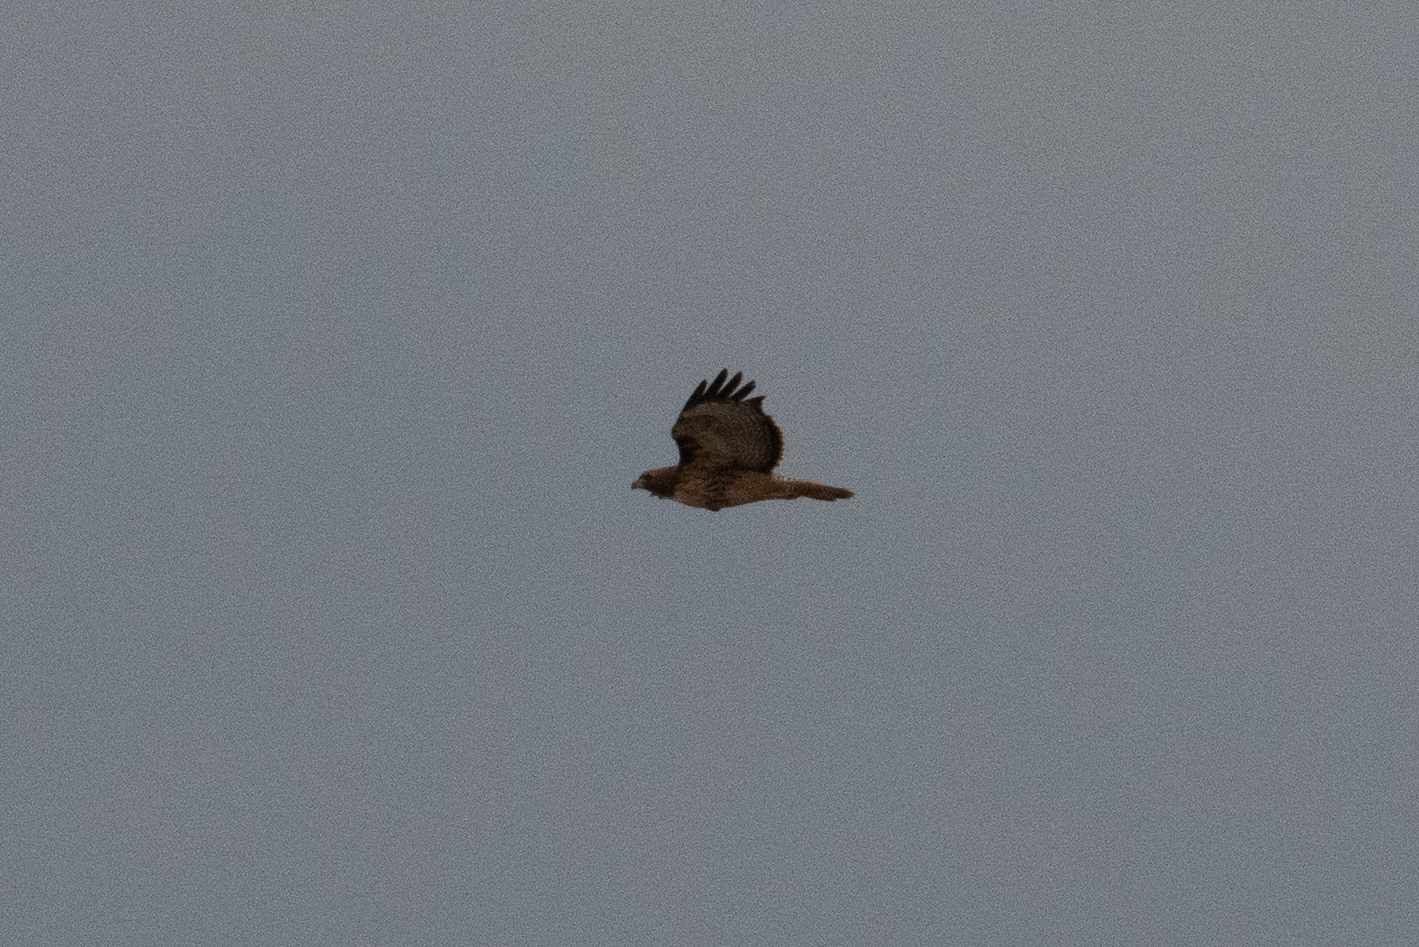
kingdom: Animalia
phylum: Chordata
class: Aves
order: Accipitriformes
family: Accipitridae
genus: Buteo
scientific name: Buteo jamaicensis
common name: Red-tailed hawk
